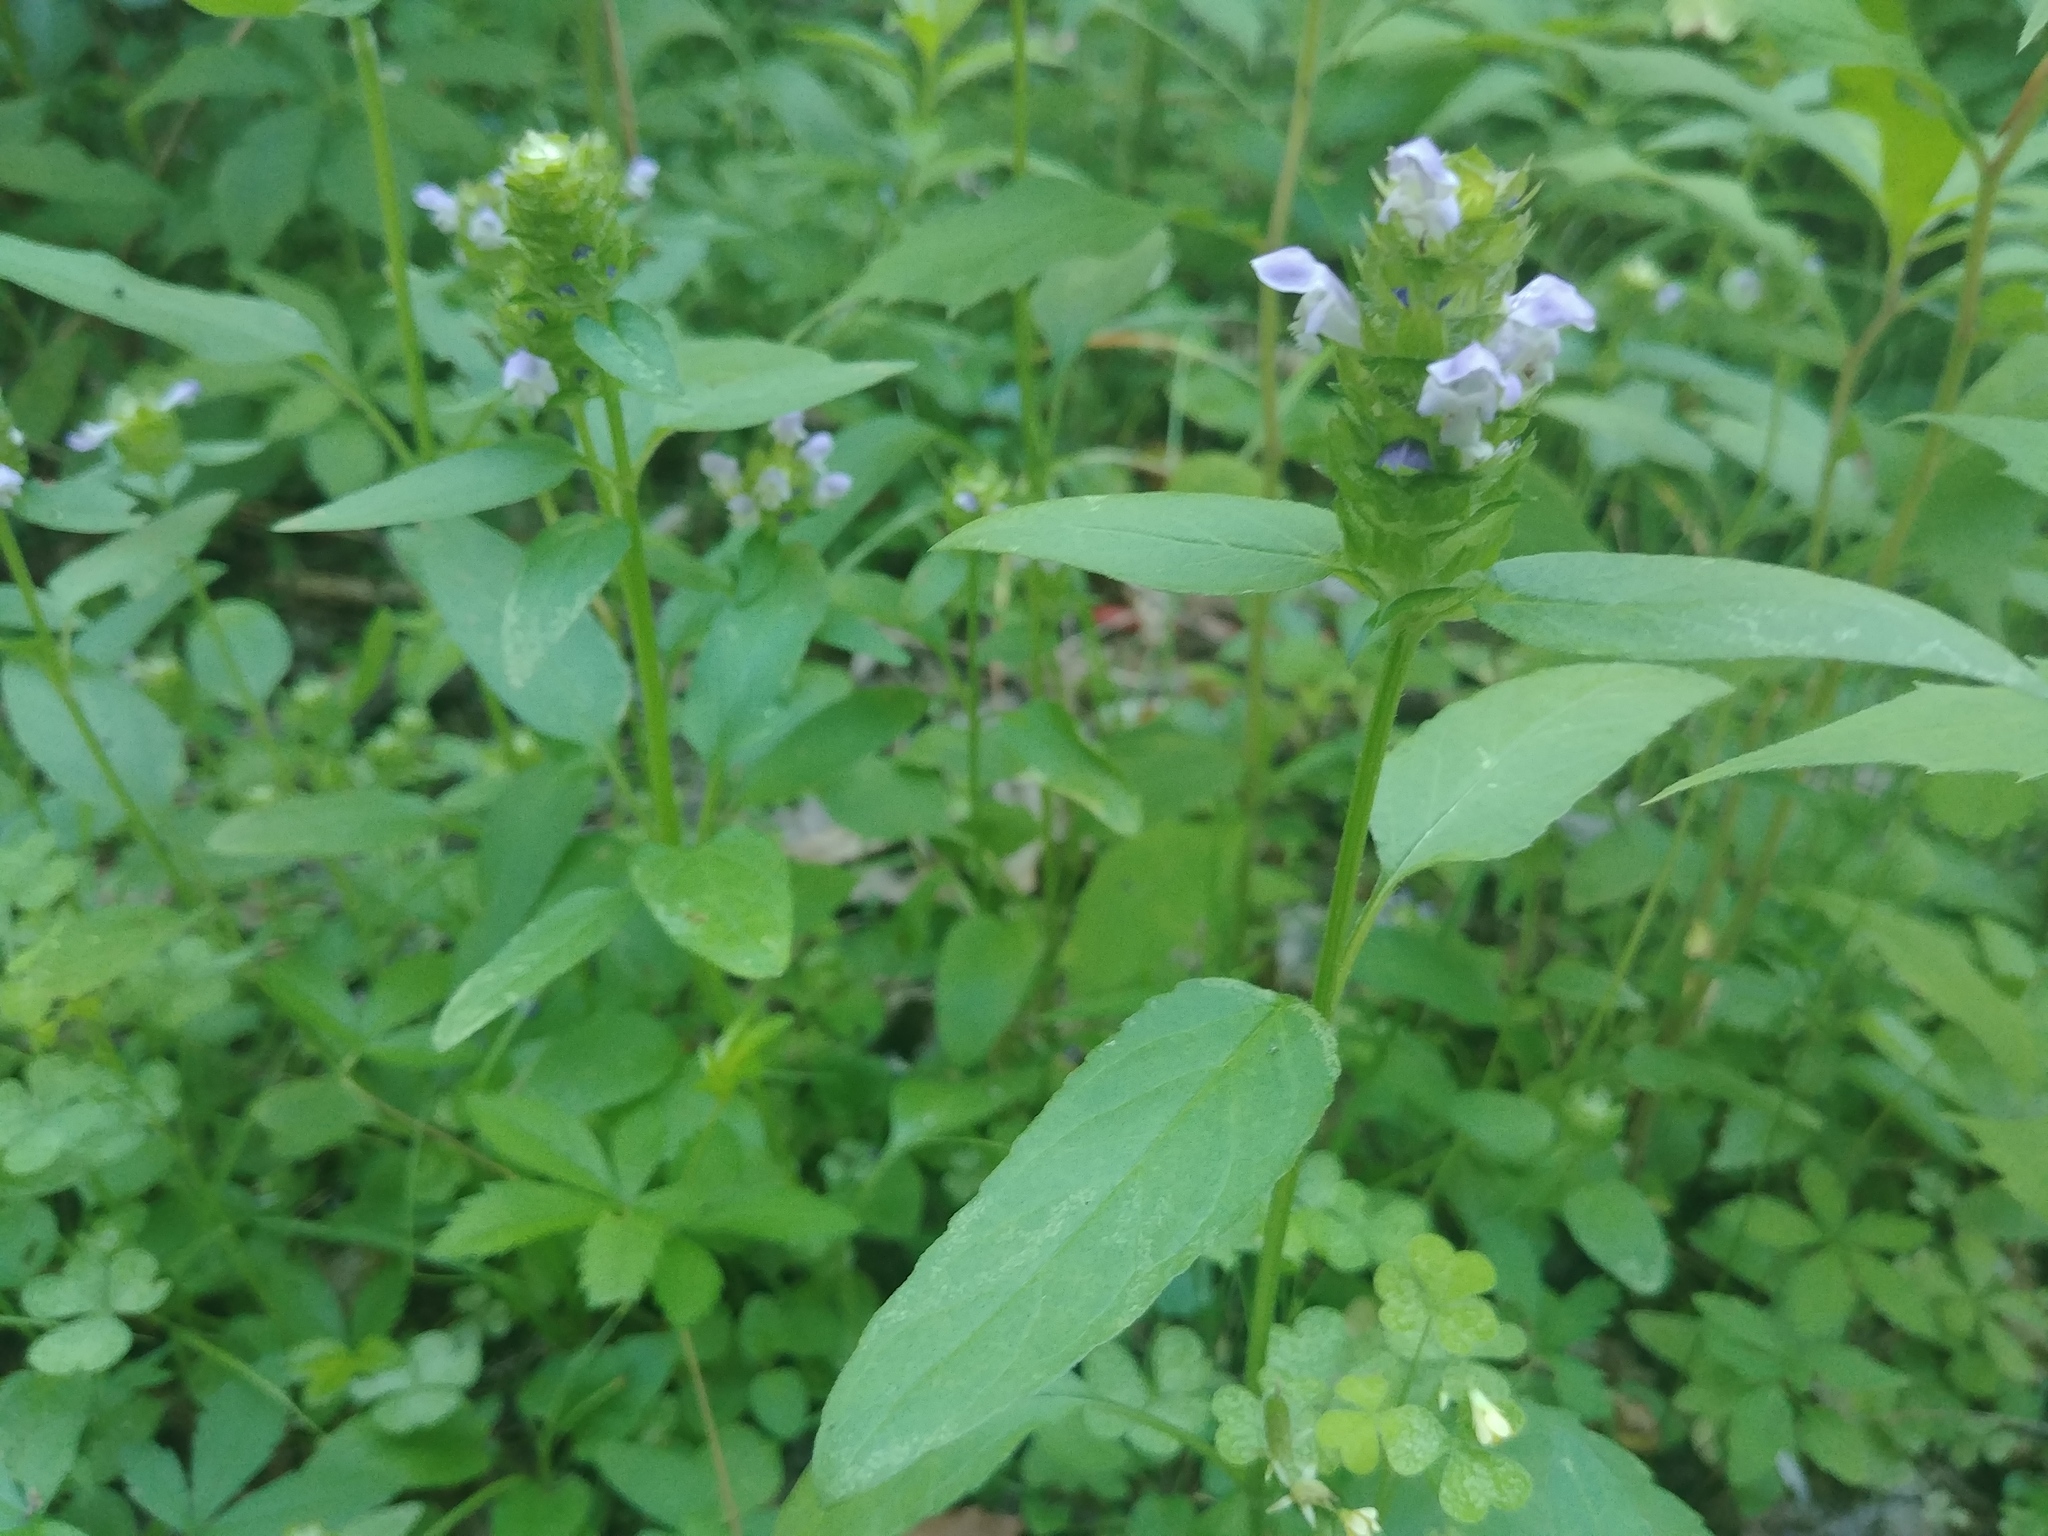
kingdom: Plantae
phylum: Tracheophyta
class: Magnoliopsida
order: Lamiales
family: Lamiaceae
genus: Prunella
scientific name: Prunella vulgaris
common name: Heal-all
